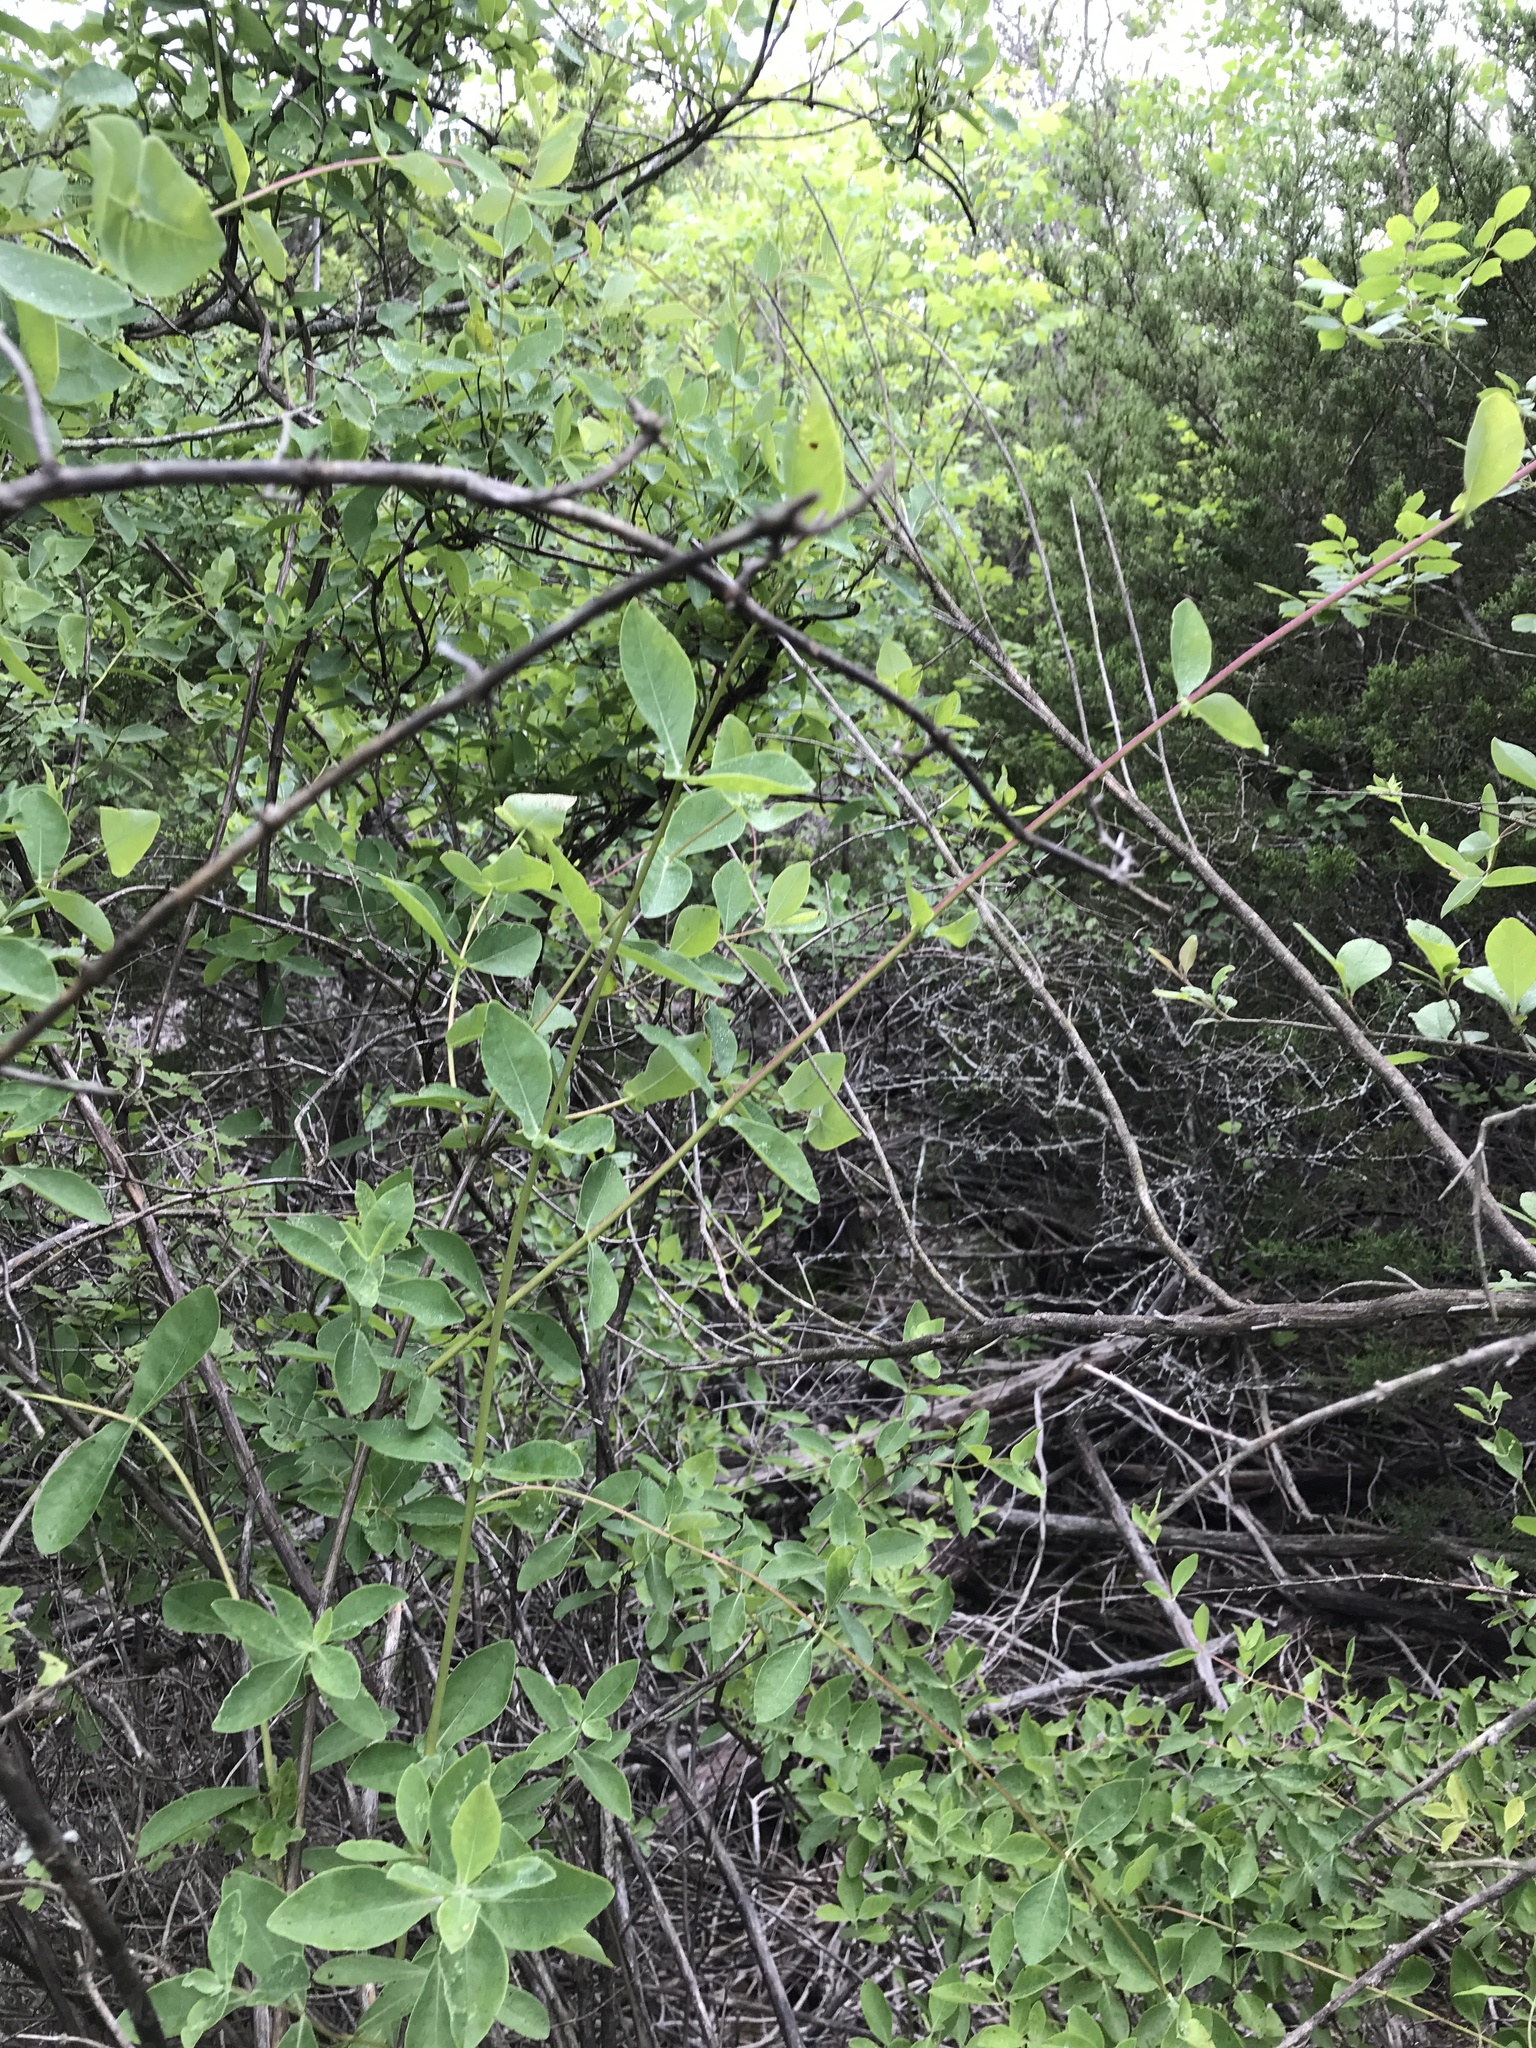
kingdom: Plantae
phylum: Tracheophyta
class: Magnoliopsida
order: Dipsacales
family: Caprifoliaceae
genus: Lonicera
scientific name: Lonicera albiflora
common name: White honeysuckle
